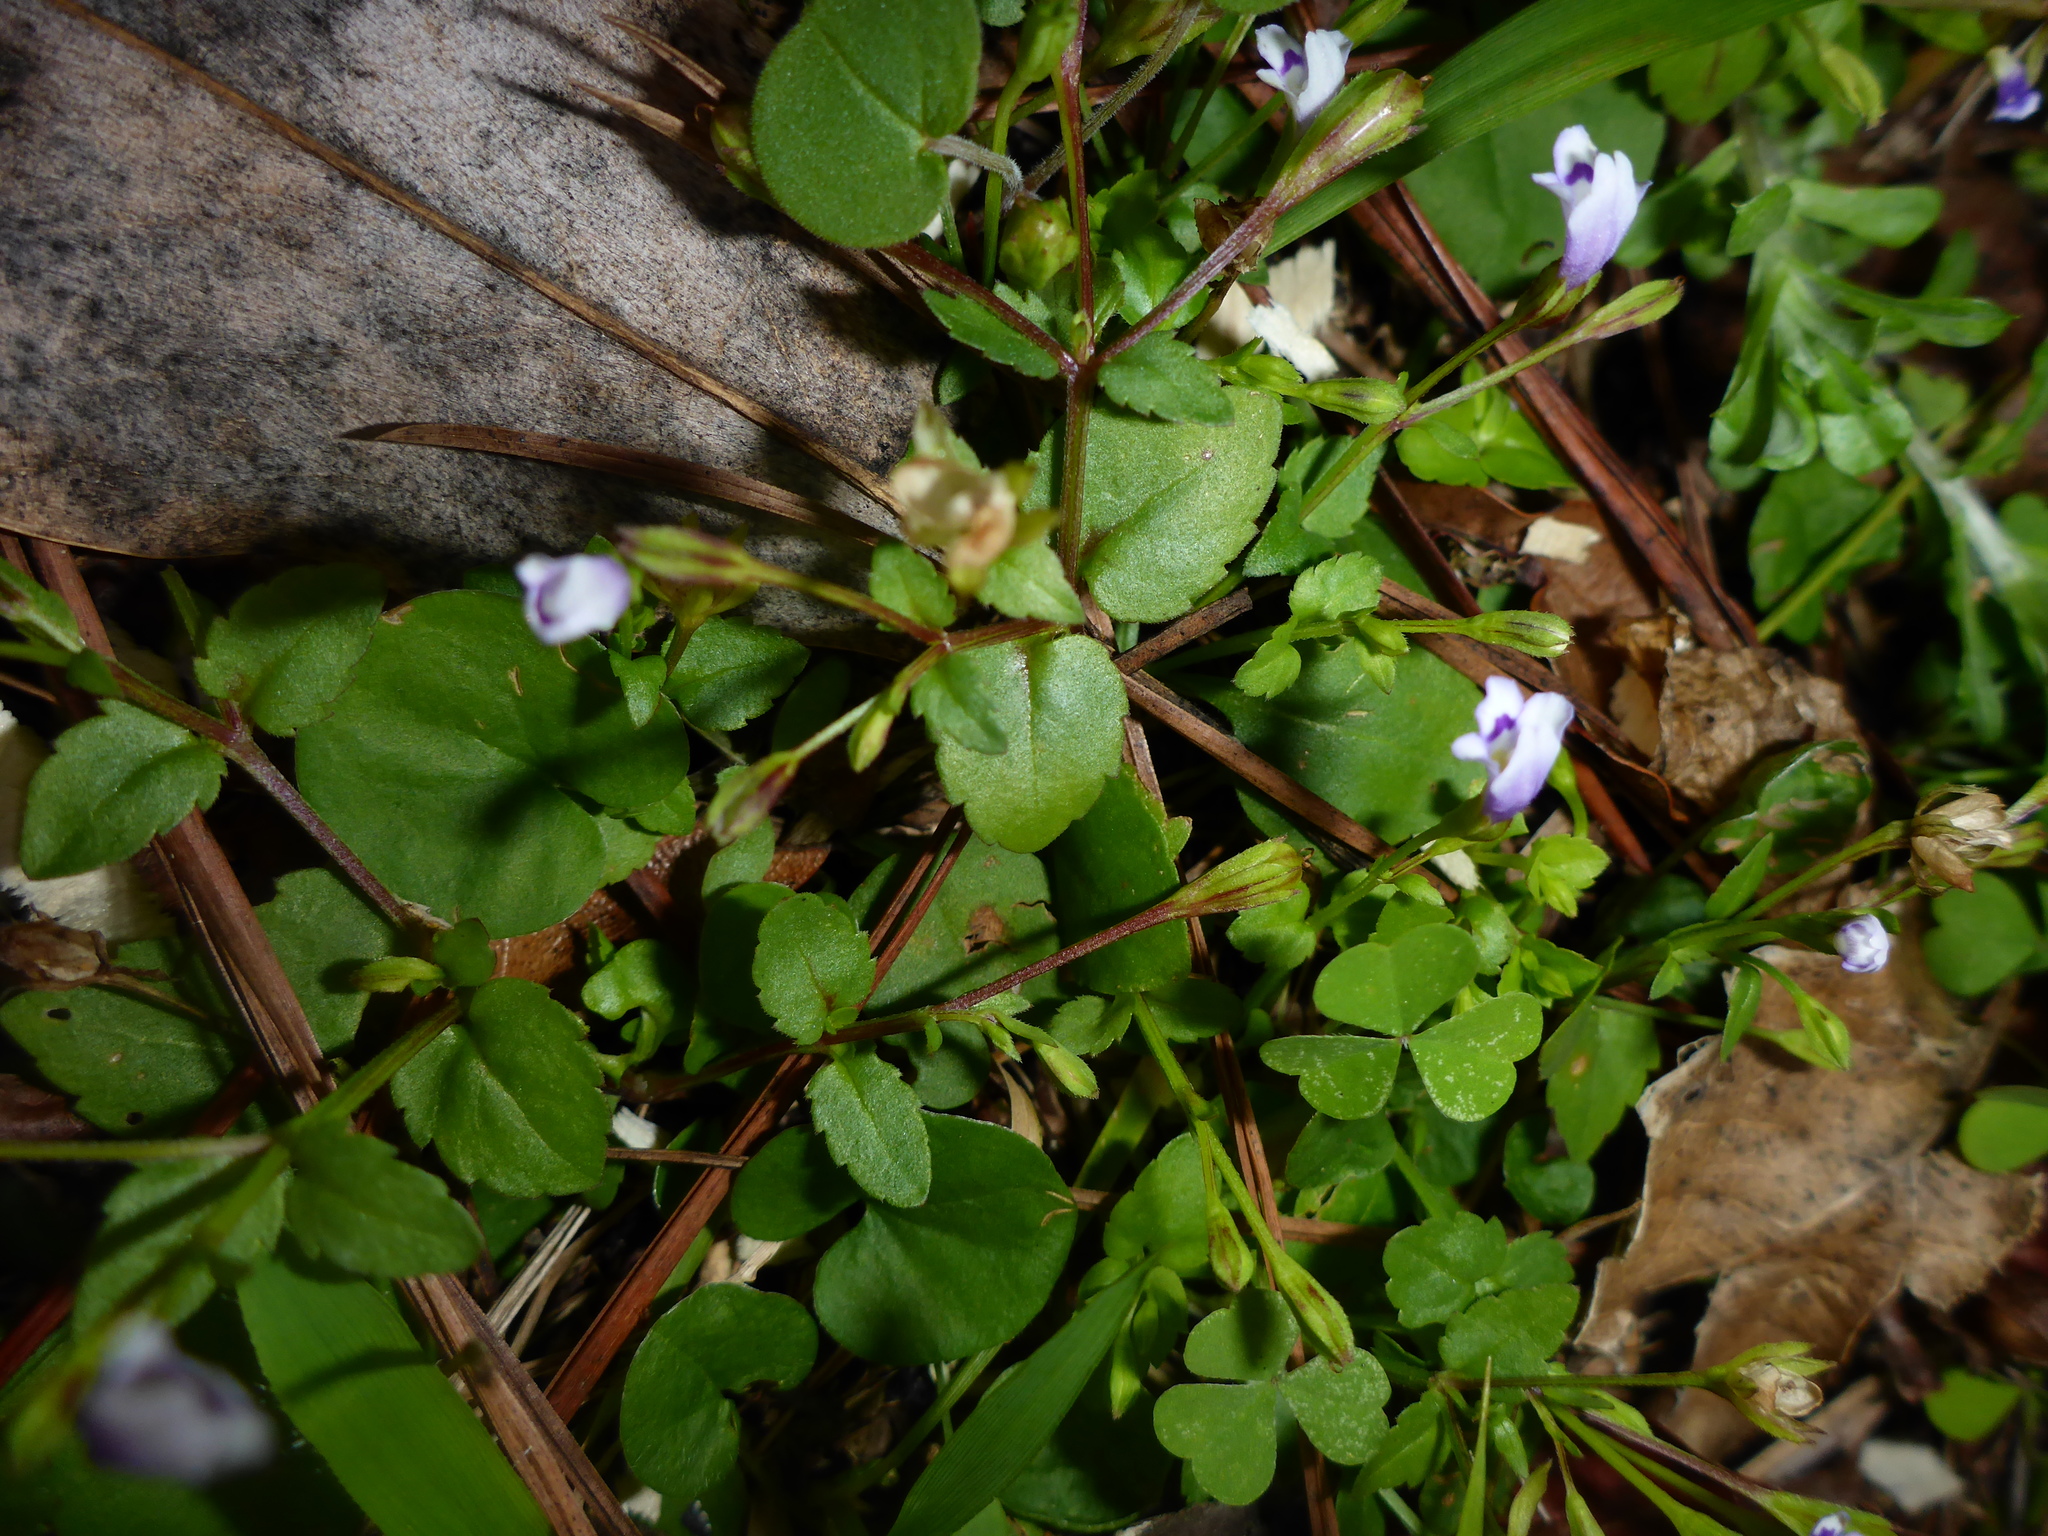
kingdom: Plantae
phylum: Tracheophyta
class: Magnoliopsida
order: Lamiales
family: Linderniaceae
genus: Torenia
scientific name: Torenia crustacea
